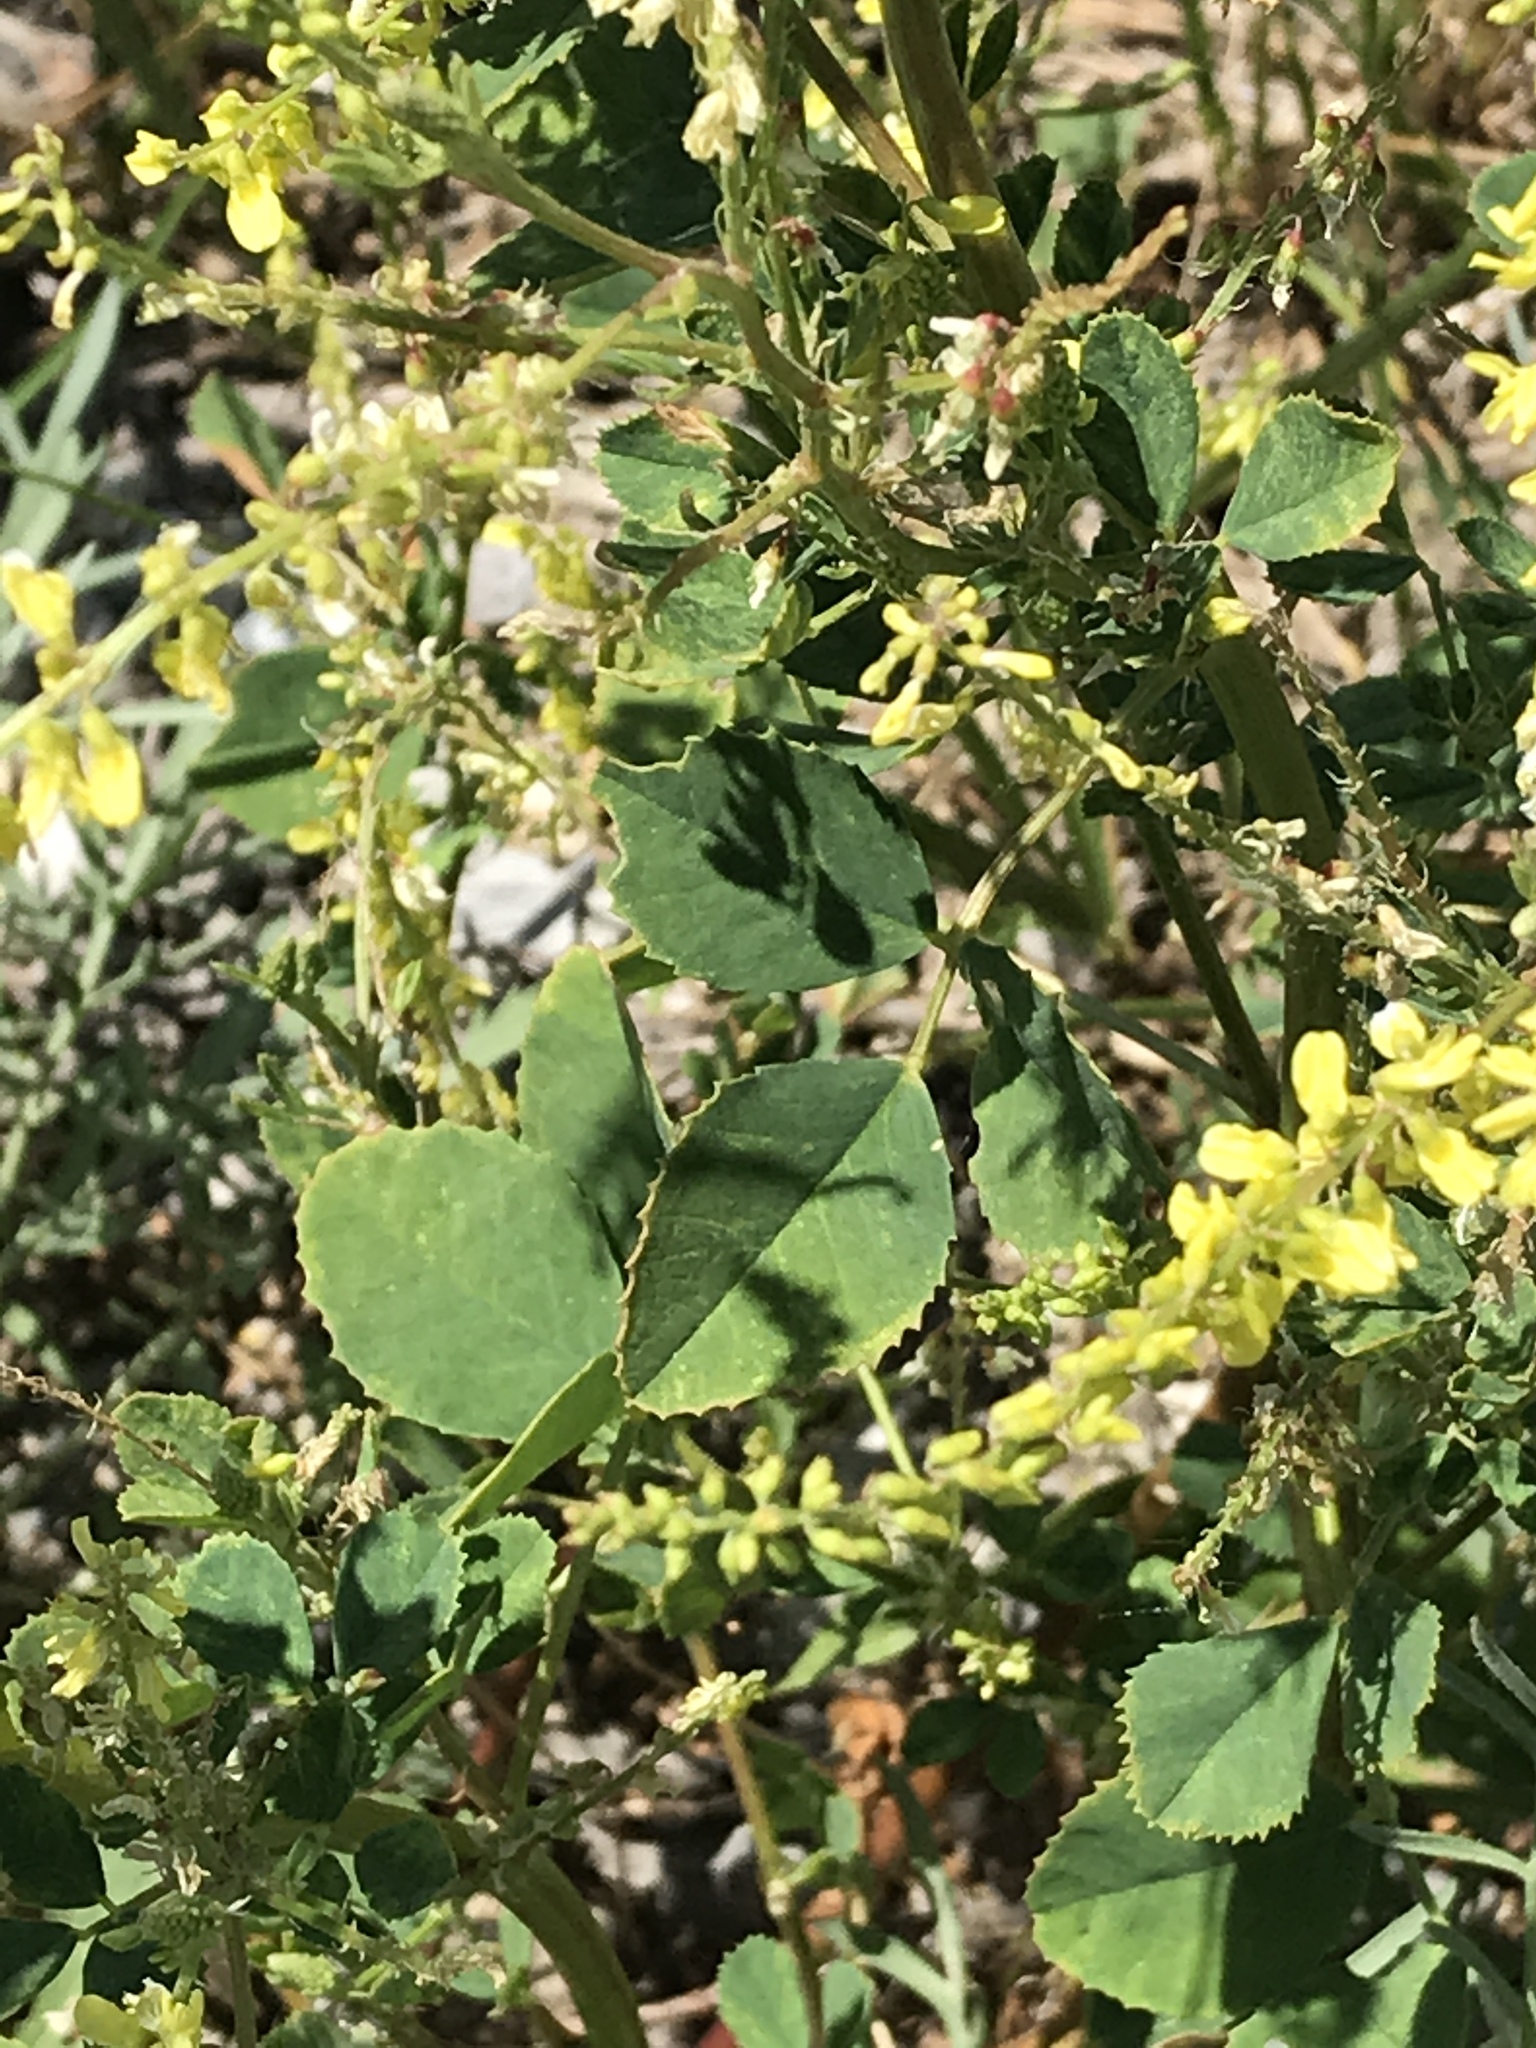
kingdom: Plantae
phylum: Tracheophyta
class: Magnoliopsida
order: Fabales
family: Fabaceae
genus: Melilotus
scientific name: Melilotus officinalis
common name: Sweetclover
